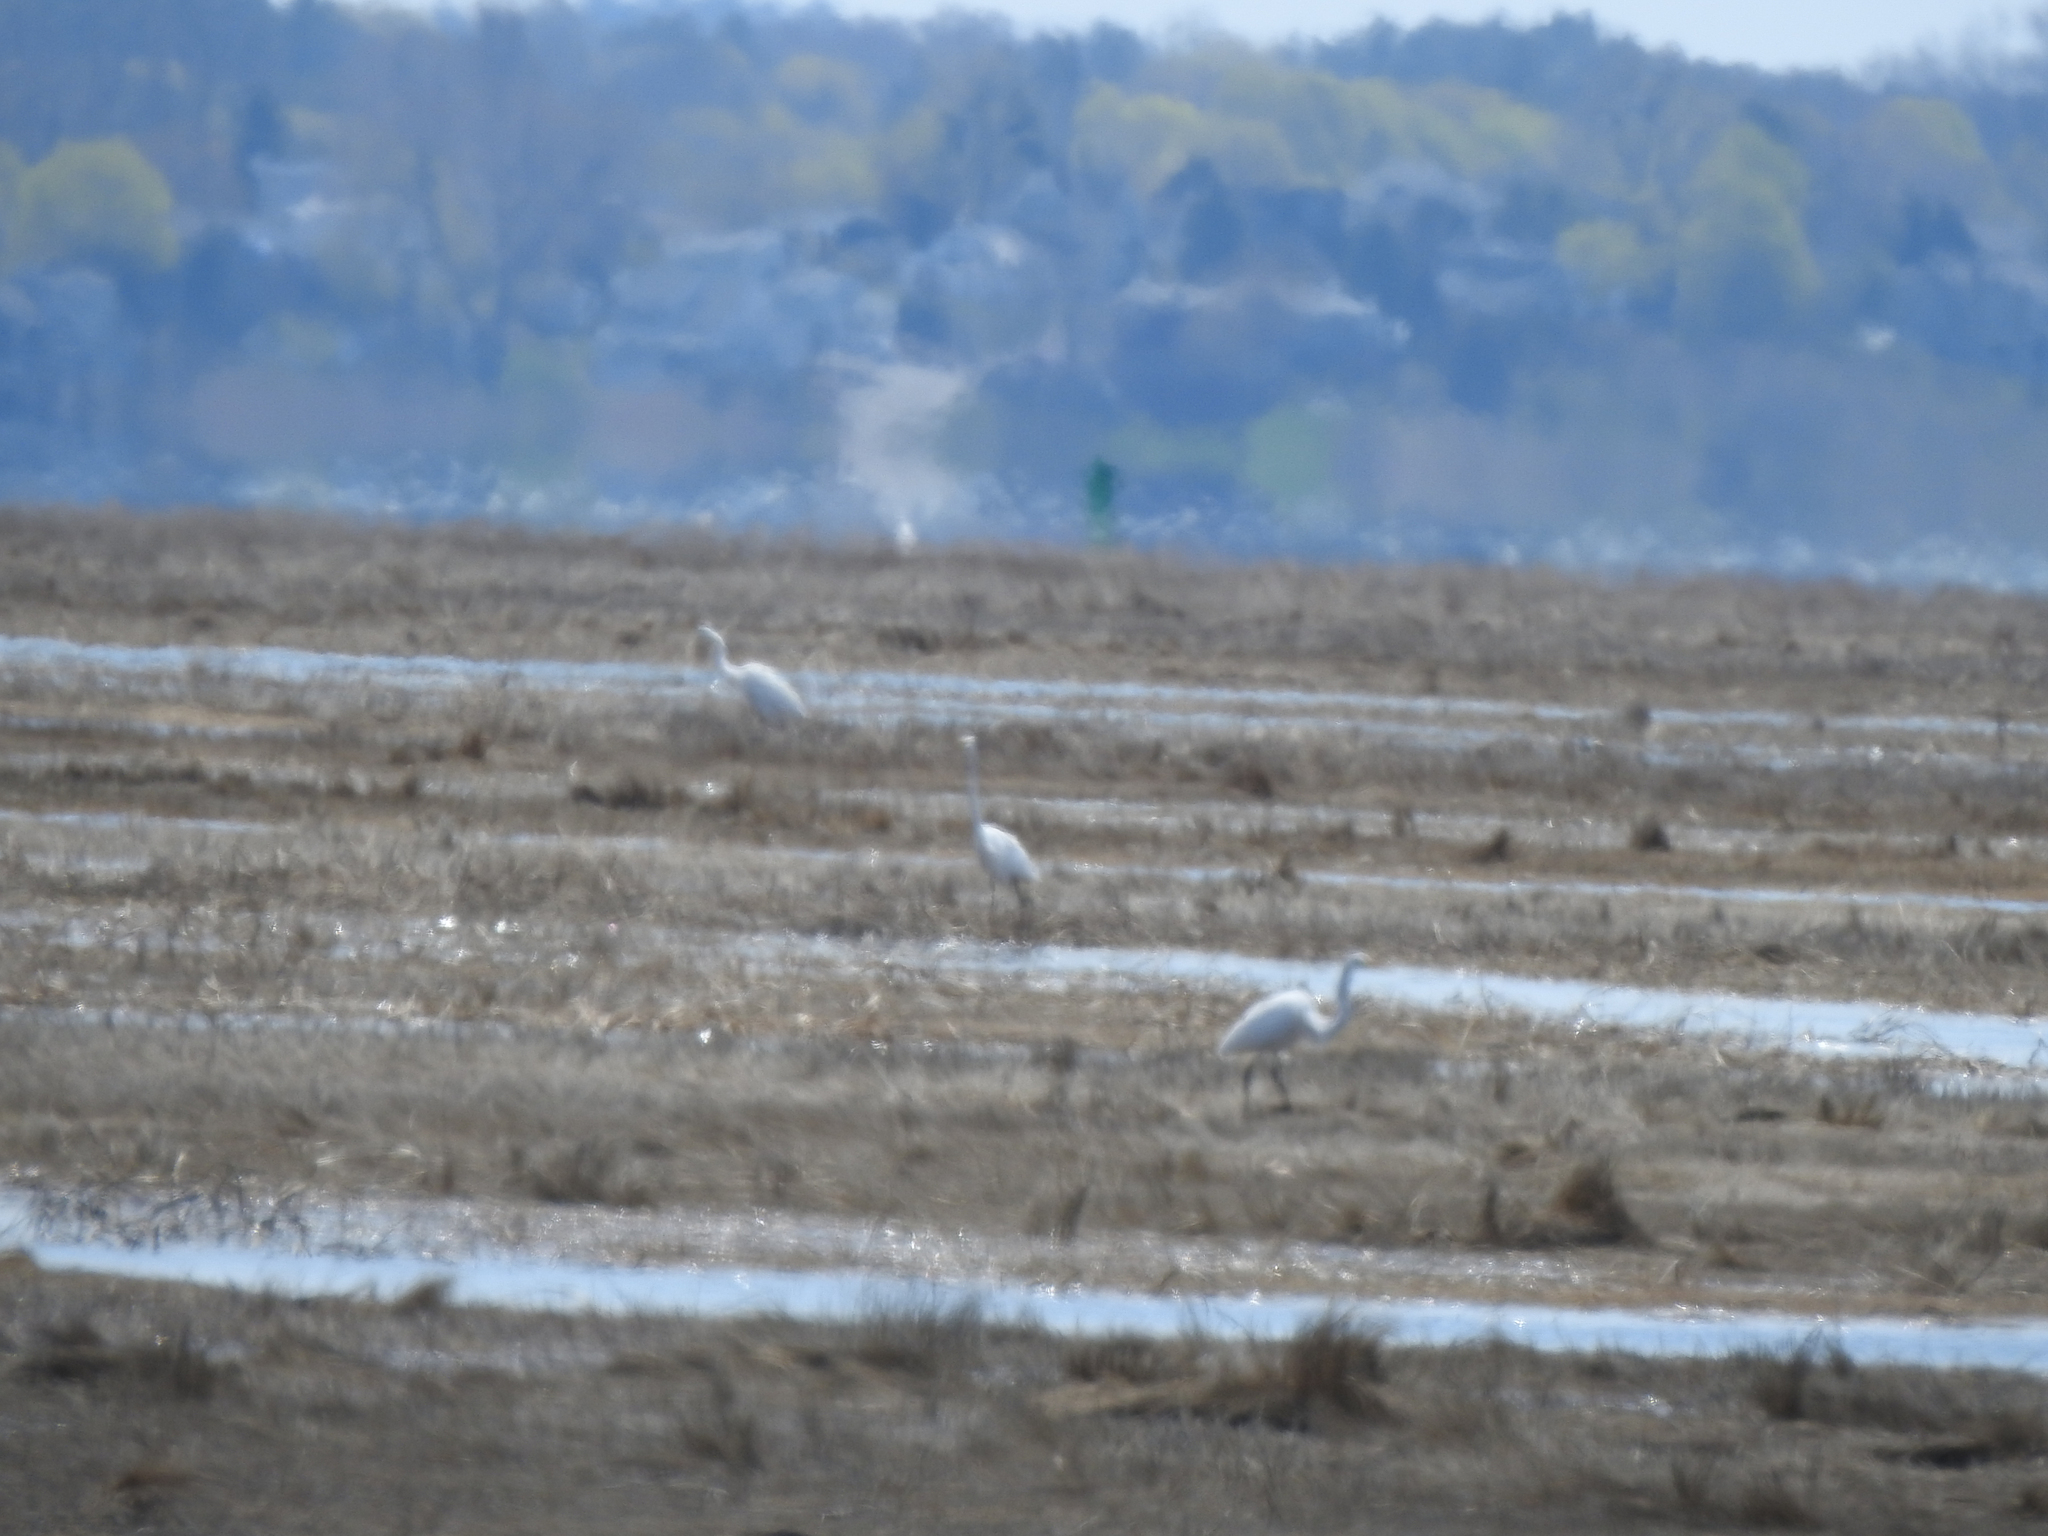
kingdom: Animalia
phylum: Chordata
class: Aves
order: Pelecaniformes
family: Ardeidae
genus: Ardea
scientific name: Ardea alba
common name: Great egret
